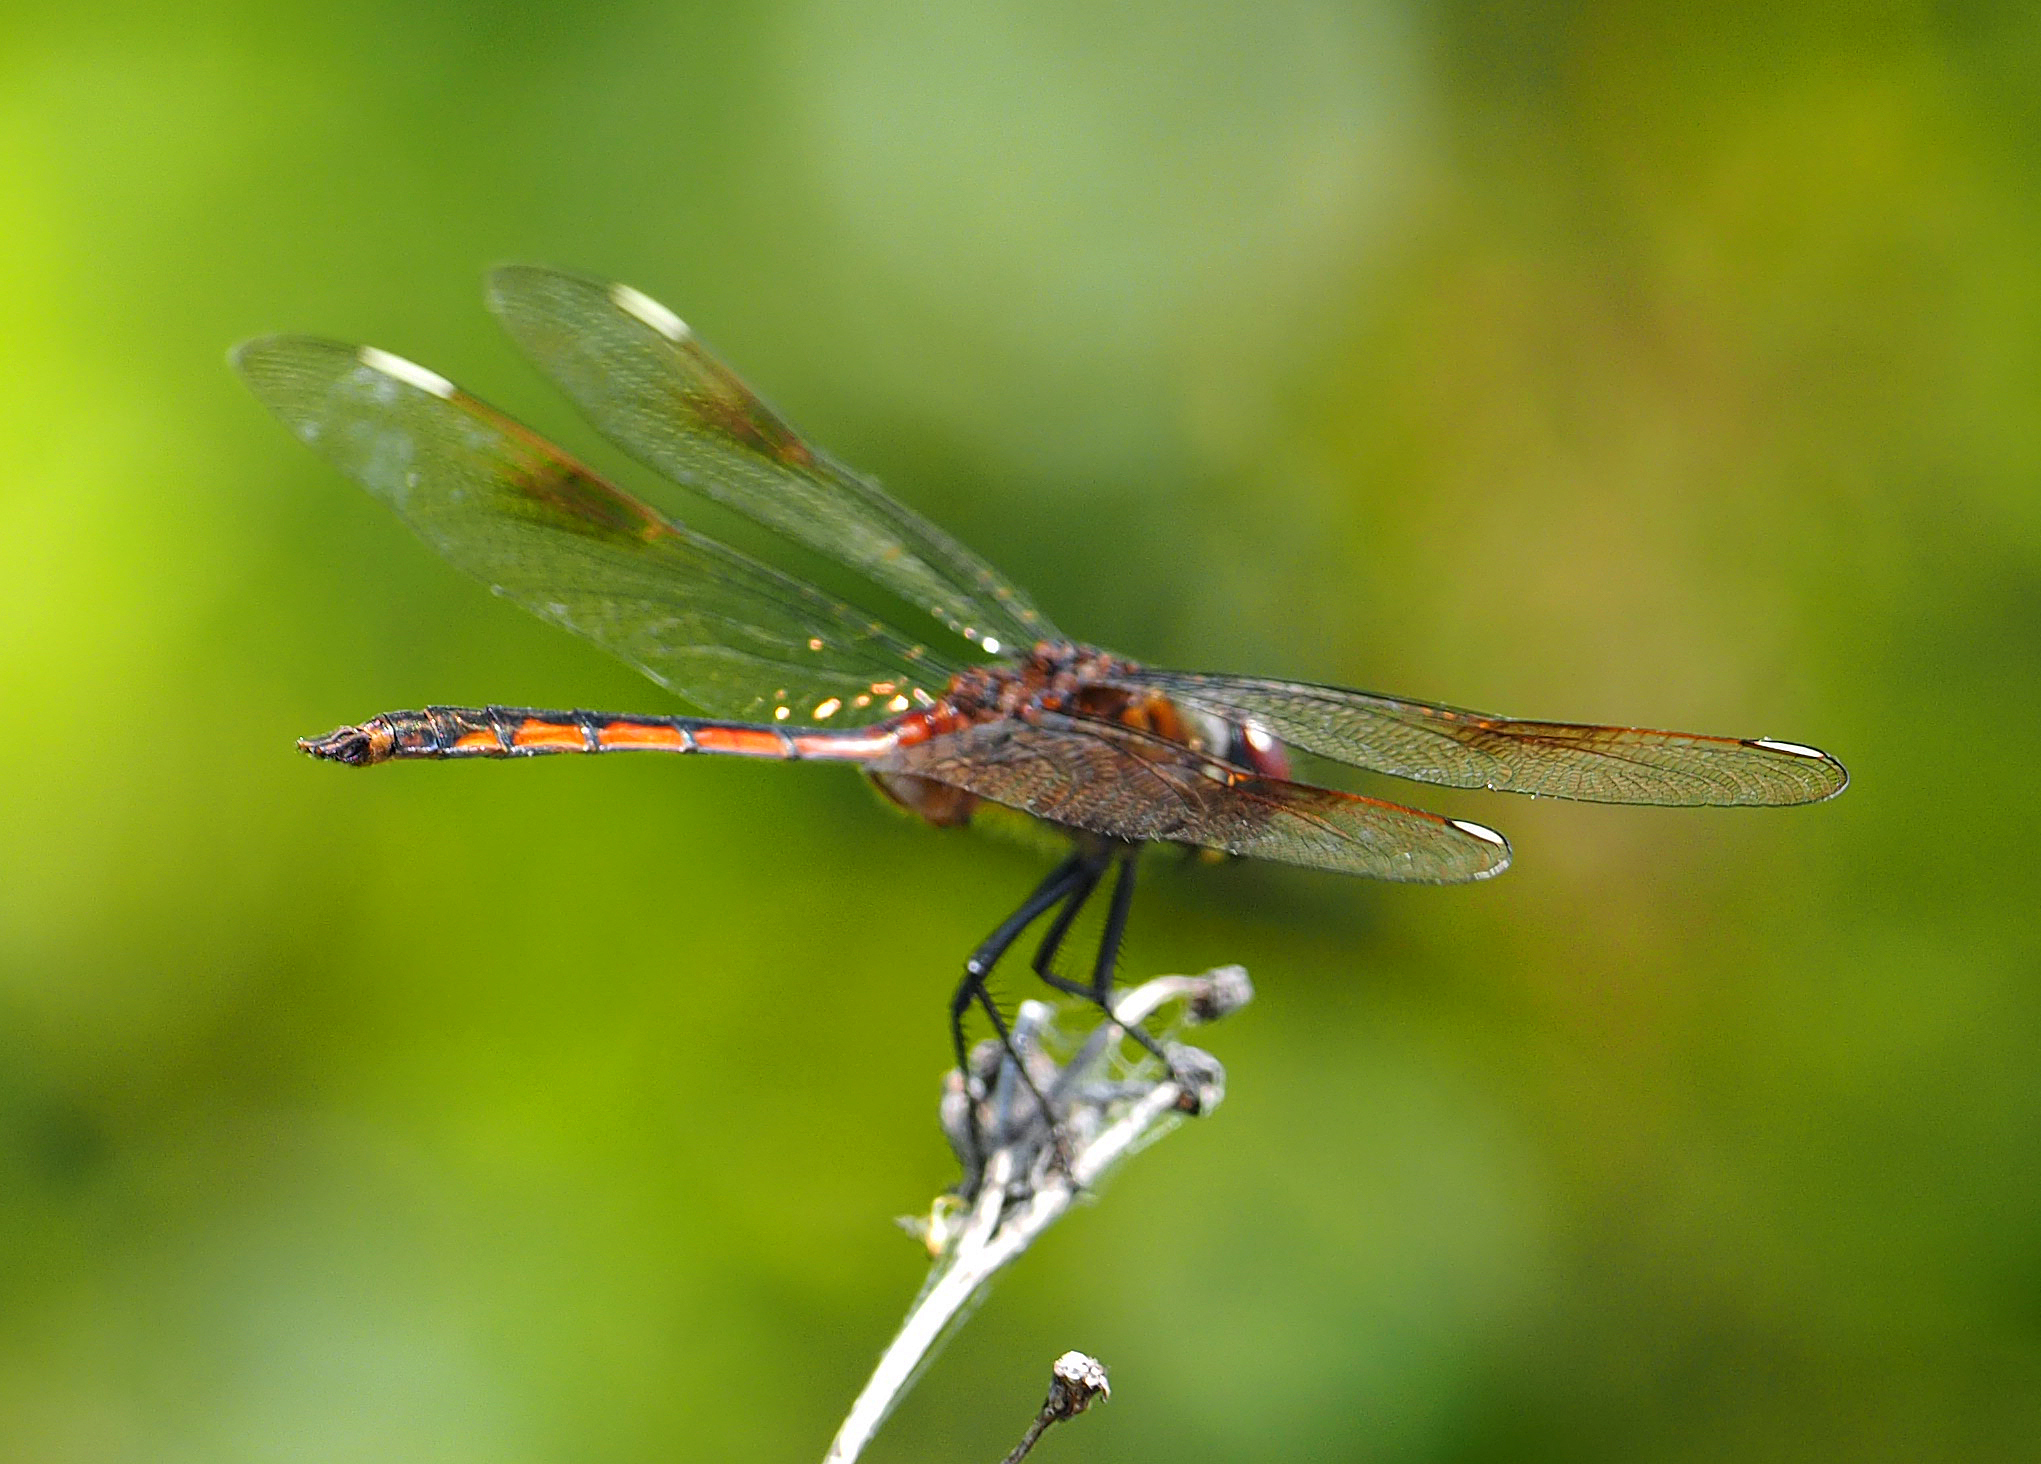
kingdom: Animalia
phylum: Arthropoda
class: Insecta
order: Odonata
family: Libellulidae
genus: Brachymesia
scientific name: Brachymesia gravida
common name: Four-spotted pennant
